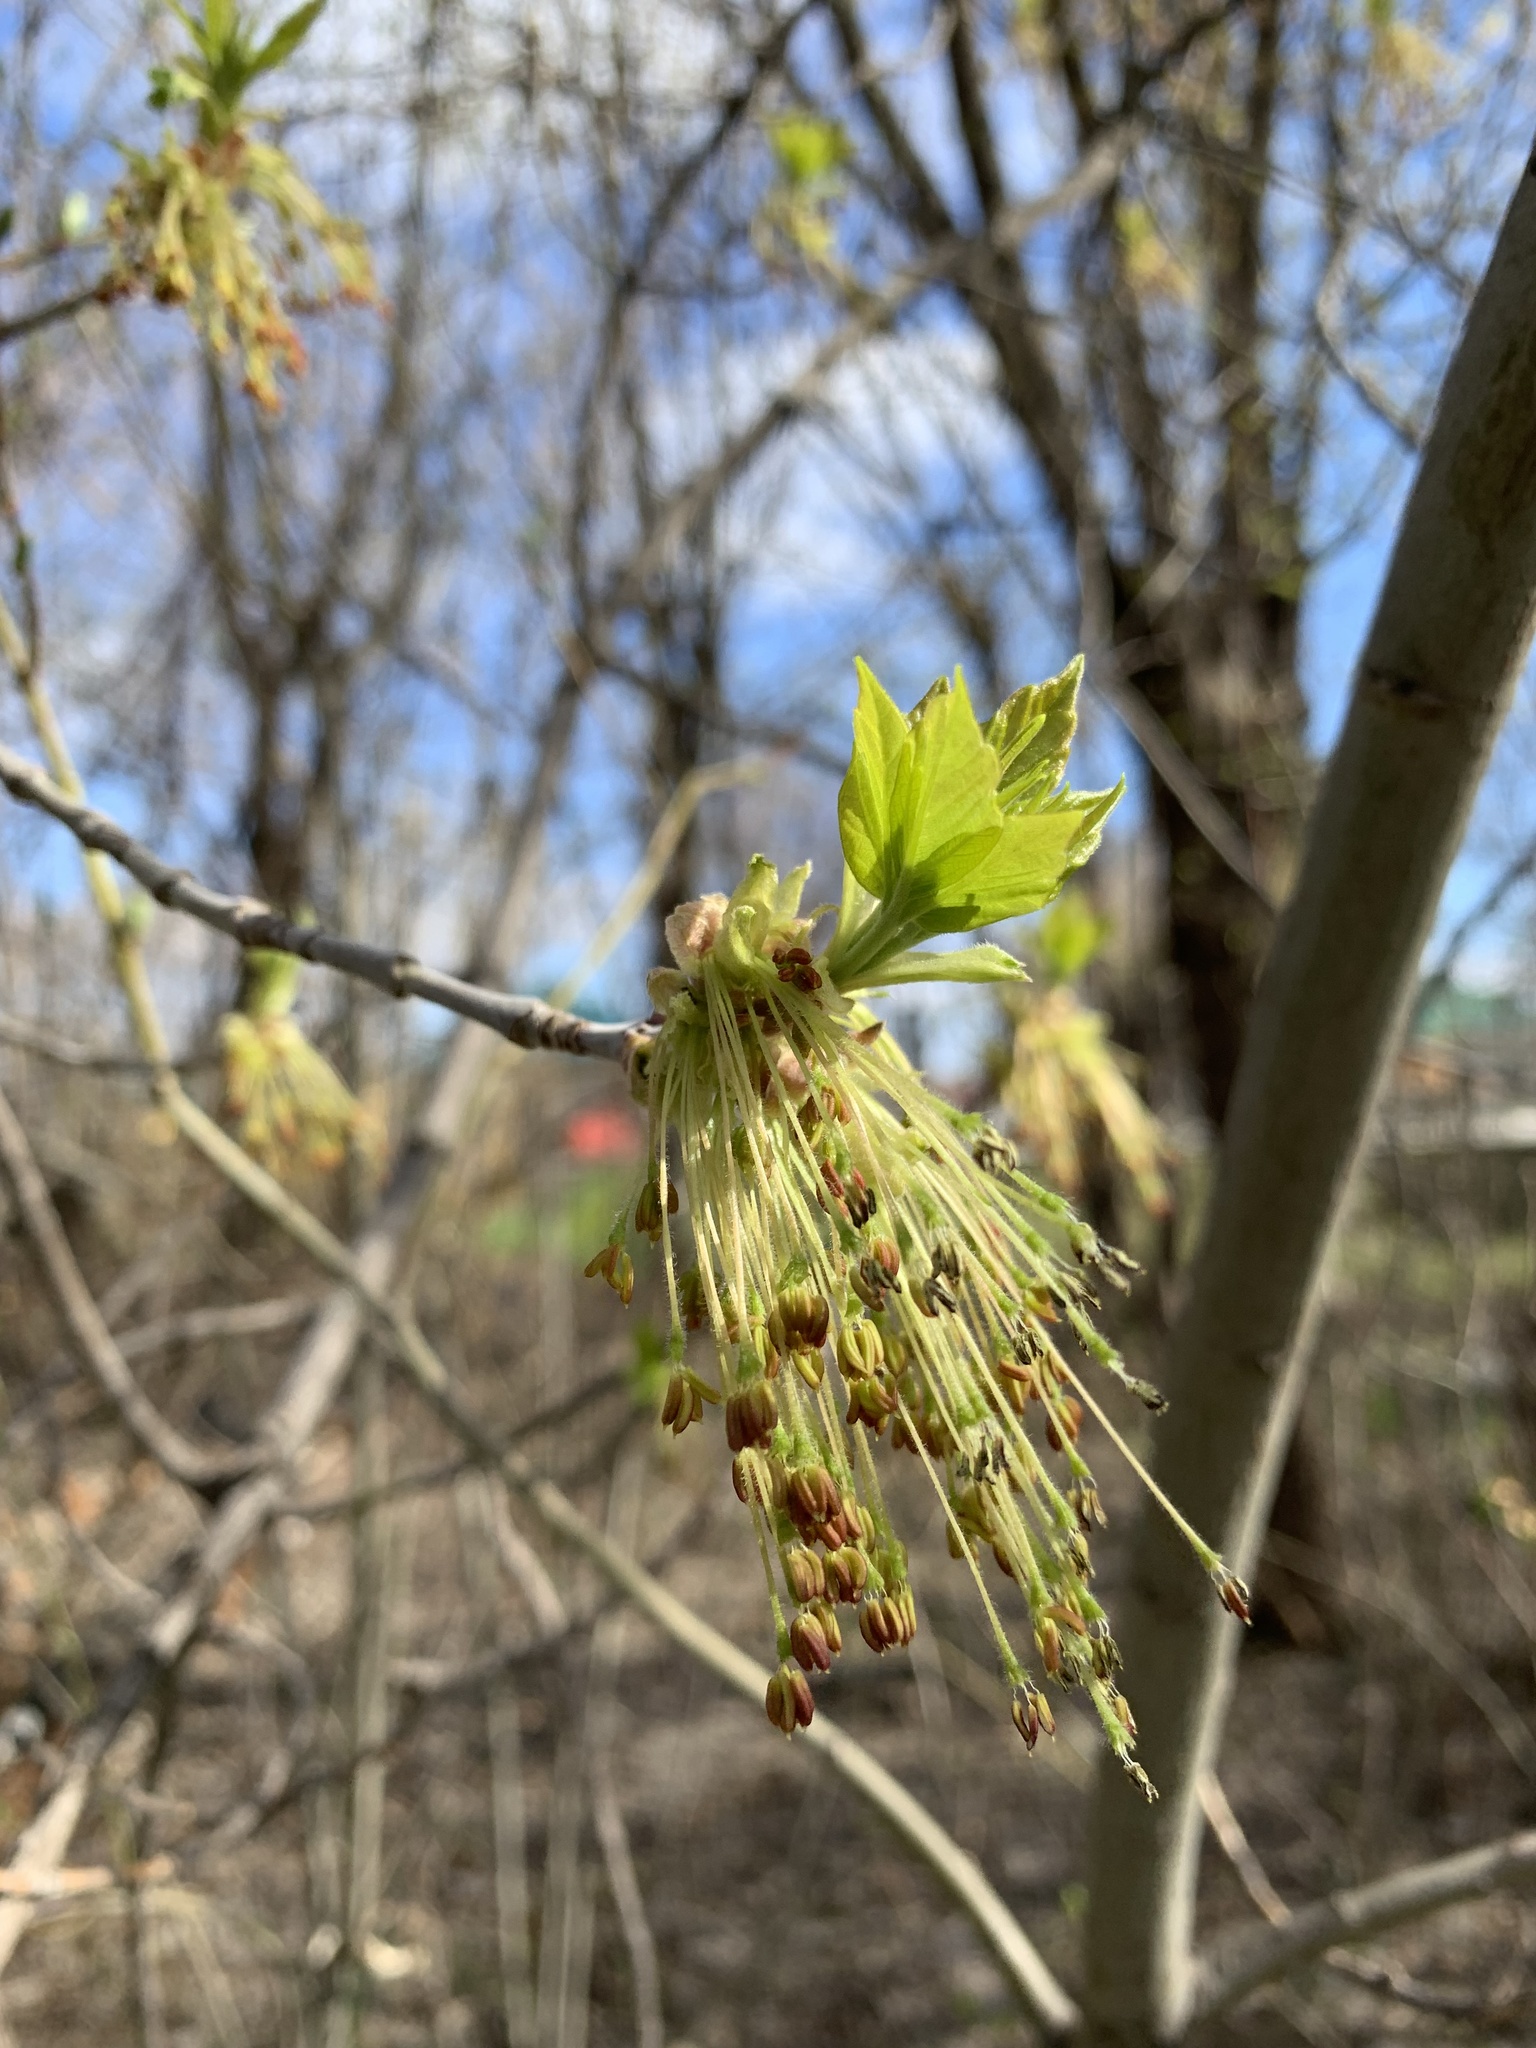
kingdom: Plantae
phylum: Tracheophyta
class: Magnoliopsida
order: Sapindales
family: Sapindaceae
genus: Acer
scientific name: Acer negundo
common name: Ashleaf maple
